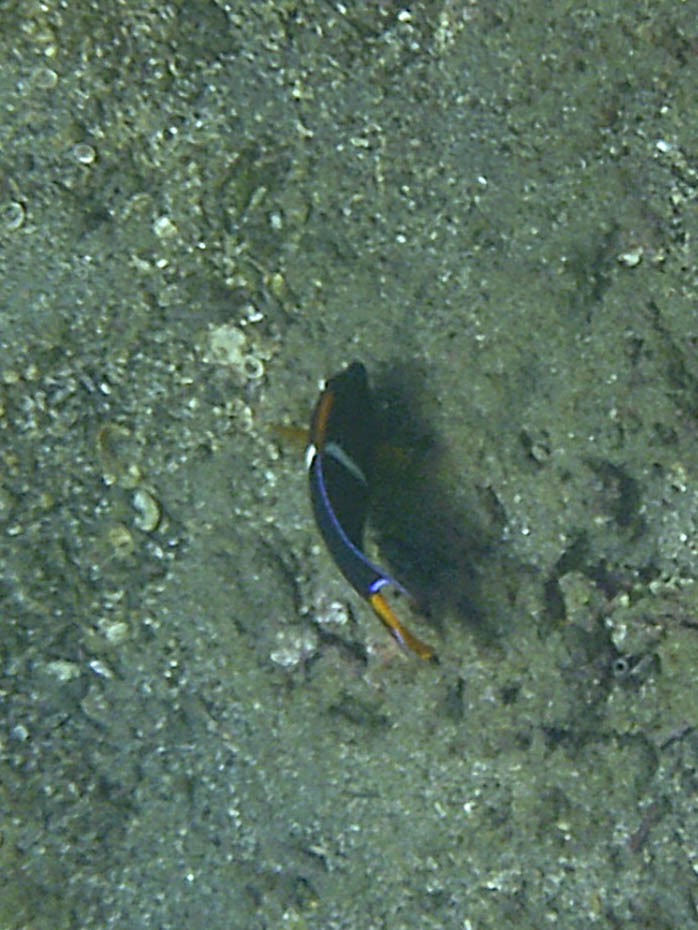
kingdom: Animalia
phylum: Chordata
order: Perciformes
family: Pomacanthidae
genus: Holacanthus
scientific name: Holacanthus passer
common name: King angelfish
